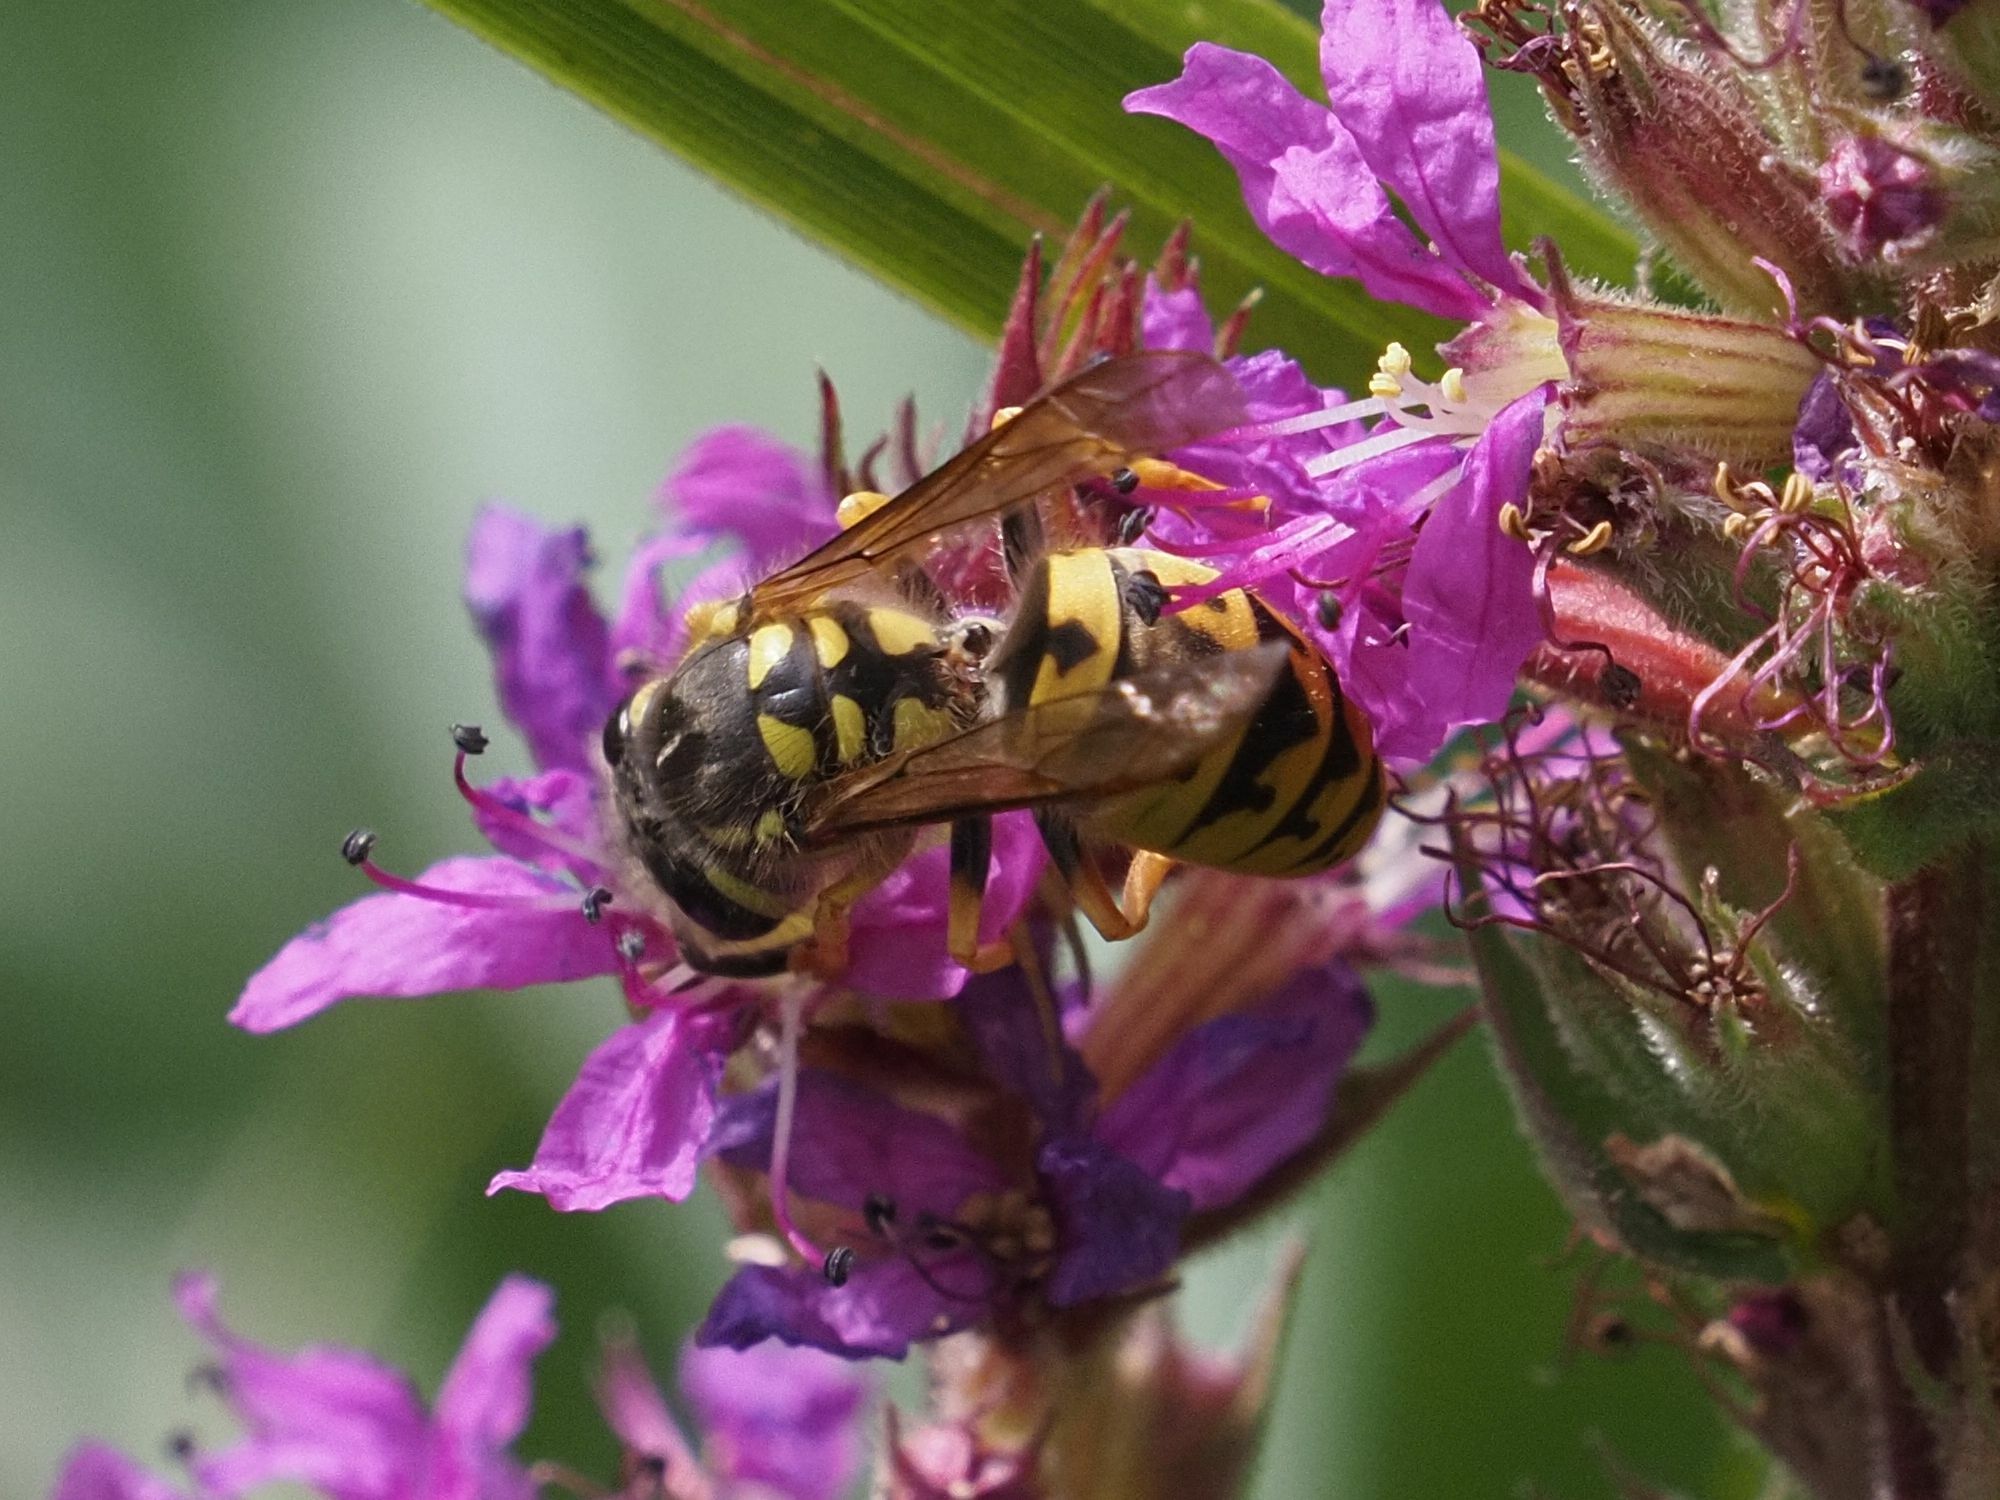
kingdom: Animalia
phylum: Arthropoda
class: Insecta
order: Hymenoptera
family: Vespidae
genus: Vespula
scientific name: Vespula germanica
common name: German wasp
